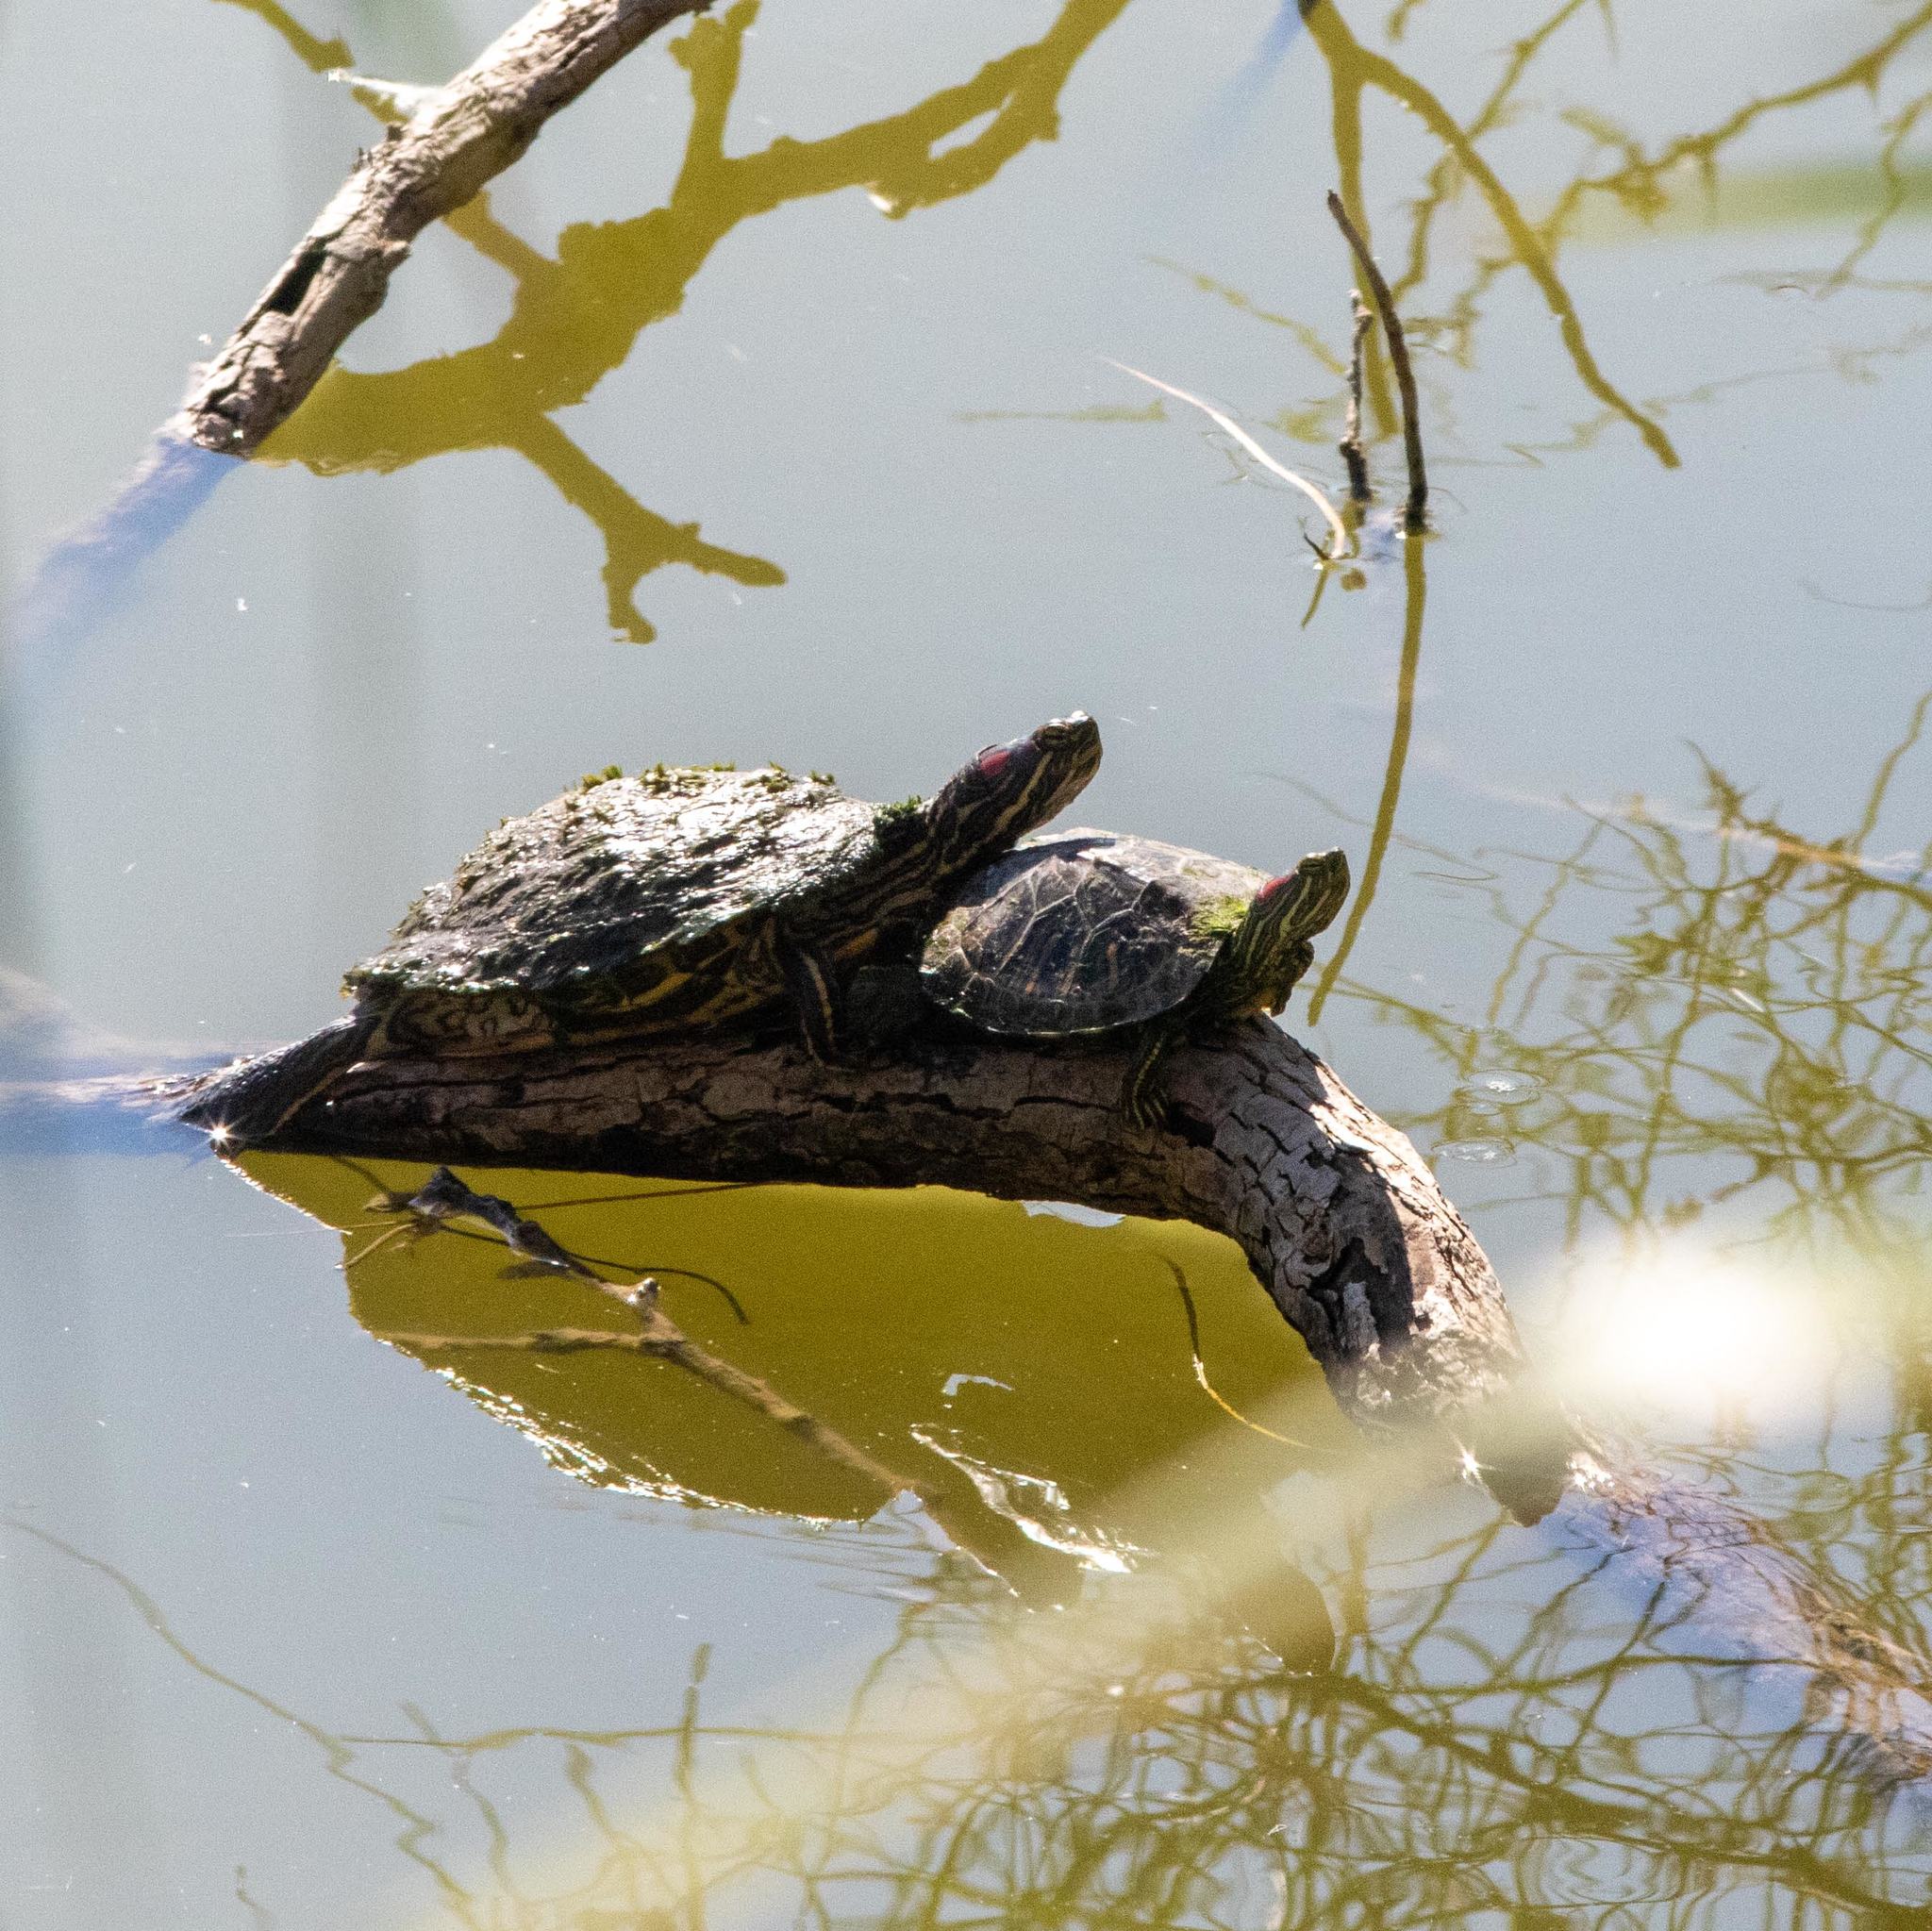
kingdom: Animalia
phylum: Chordata
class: Testudines
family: Emydidae
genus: Trachemys
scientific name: Trachemys scripta
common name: Slider
